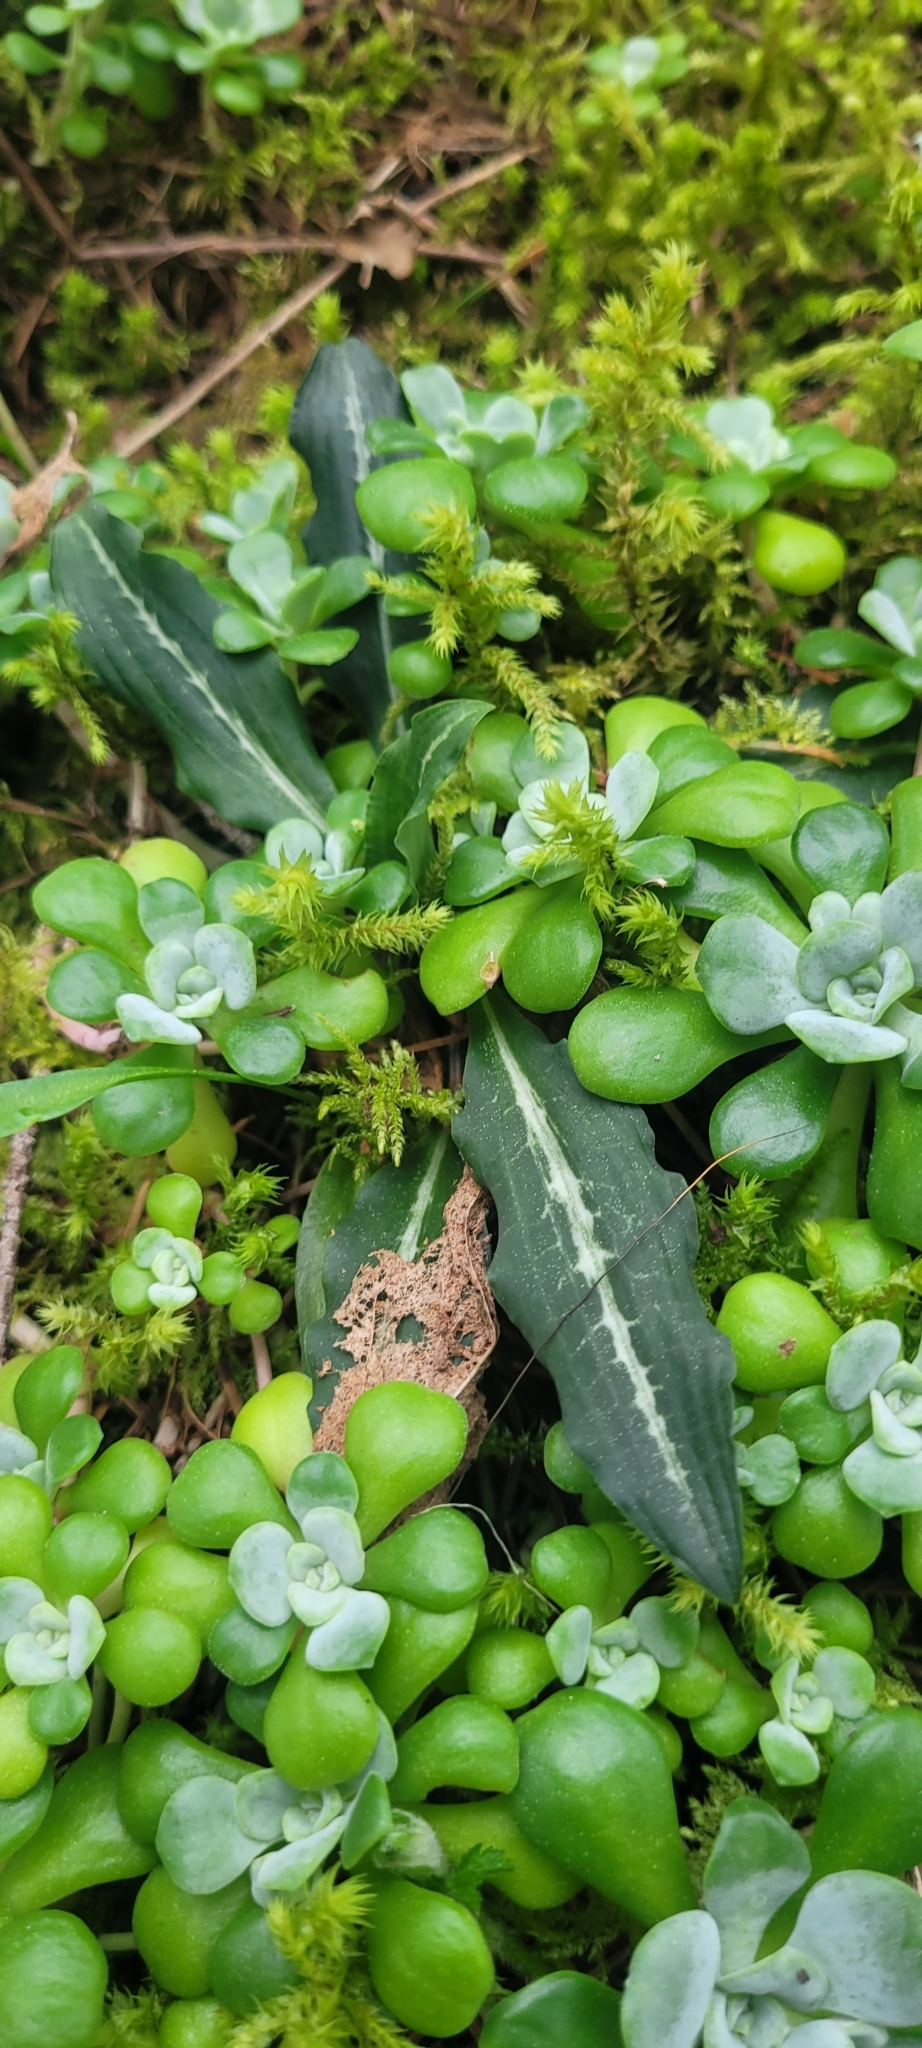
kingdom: Plantae
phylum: Tracheophyta
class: Liliopsida
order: Asparagales
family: Orchidaceae
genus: Goodyera
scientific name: Goodyera oblongifolia
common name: Giant rattlesnake-plantain
